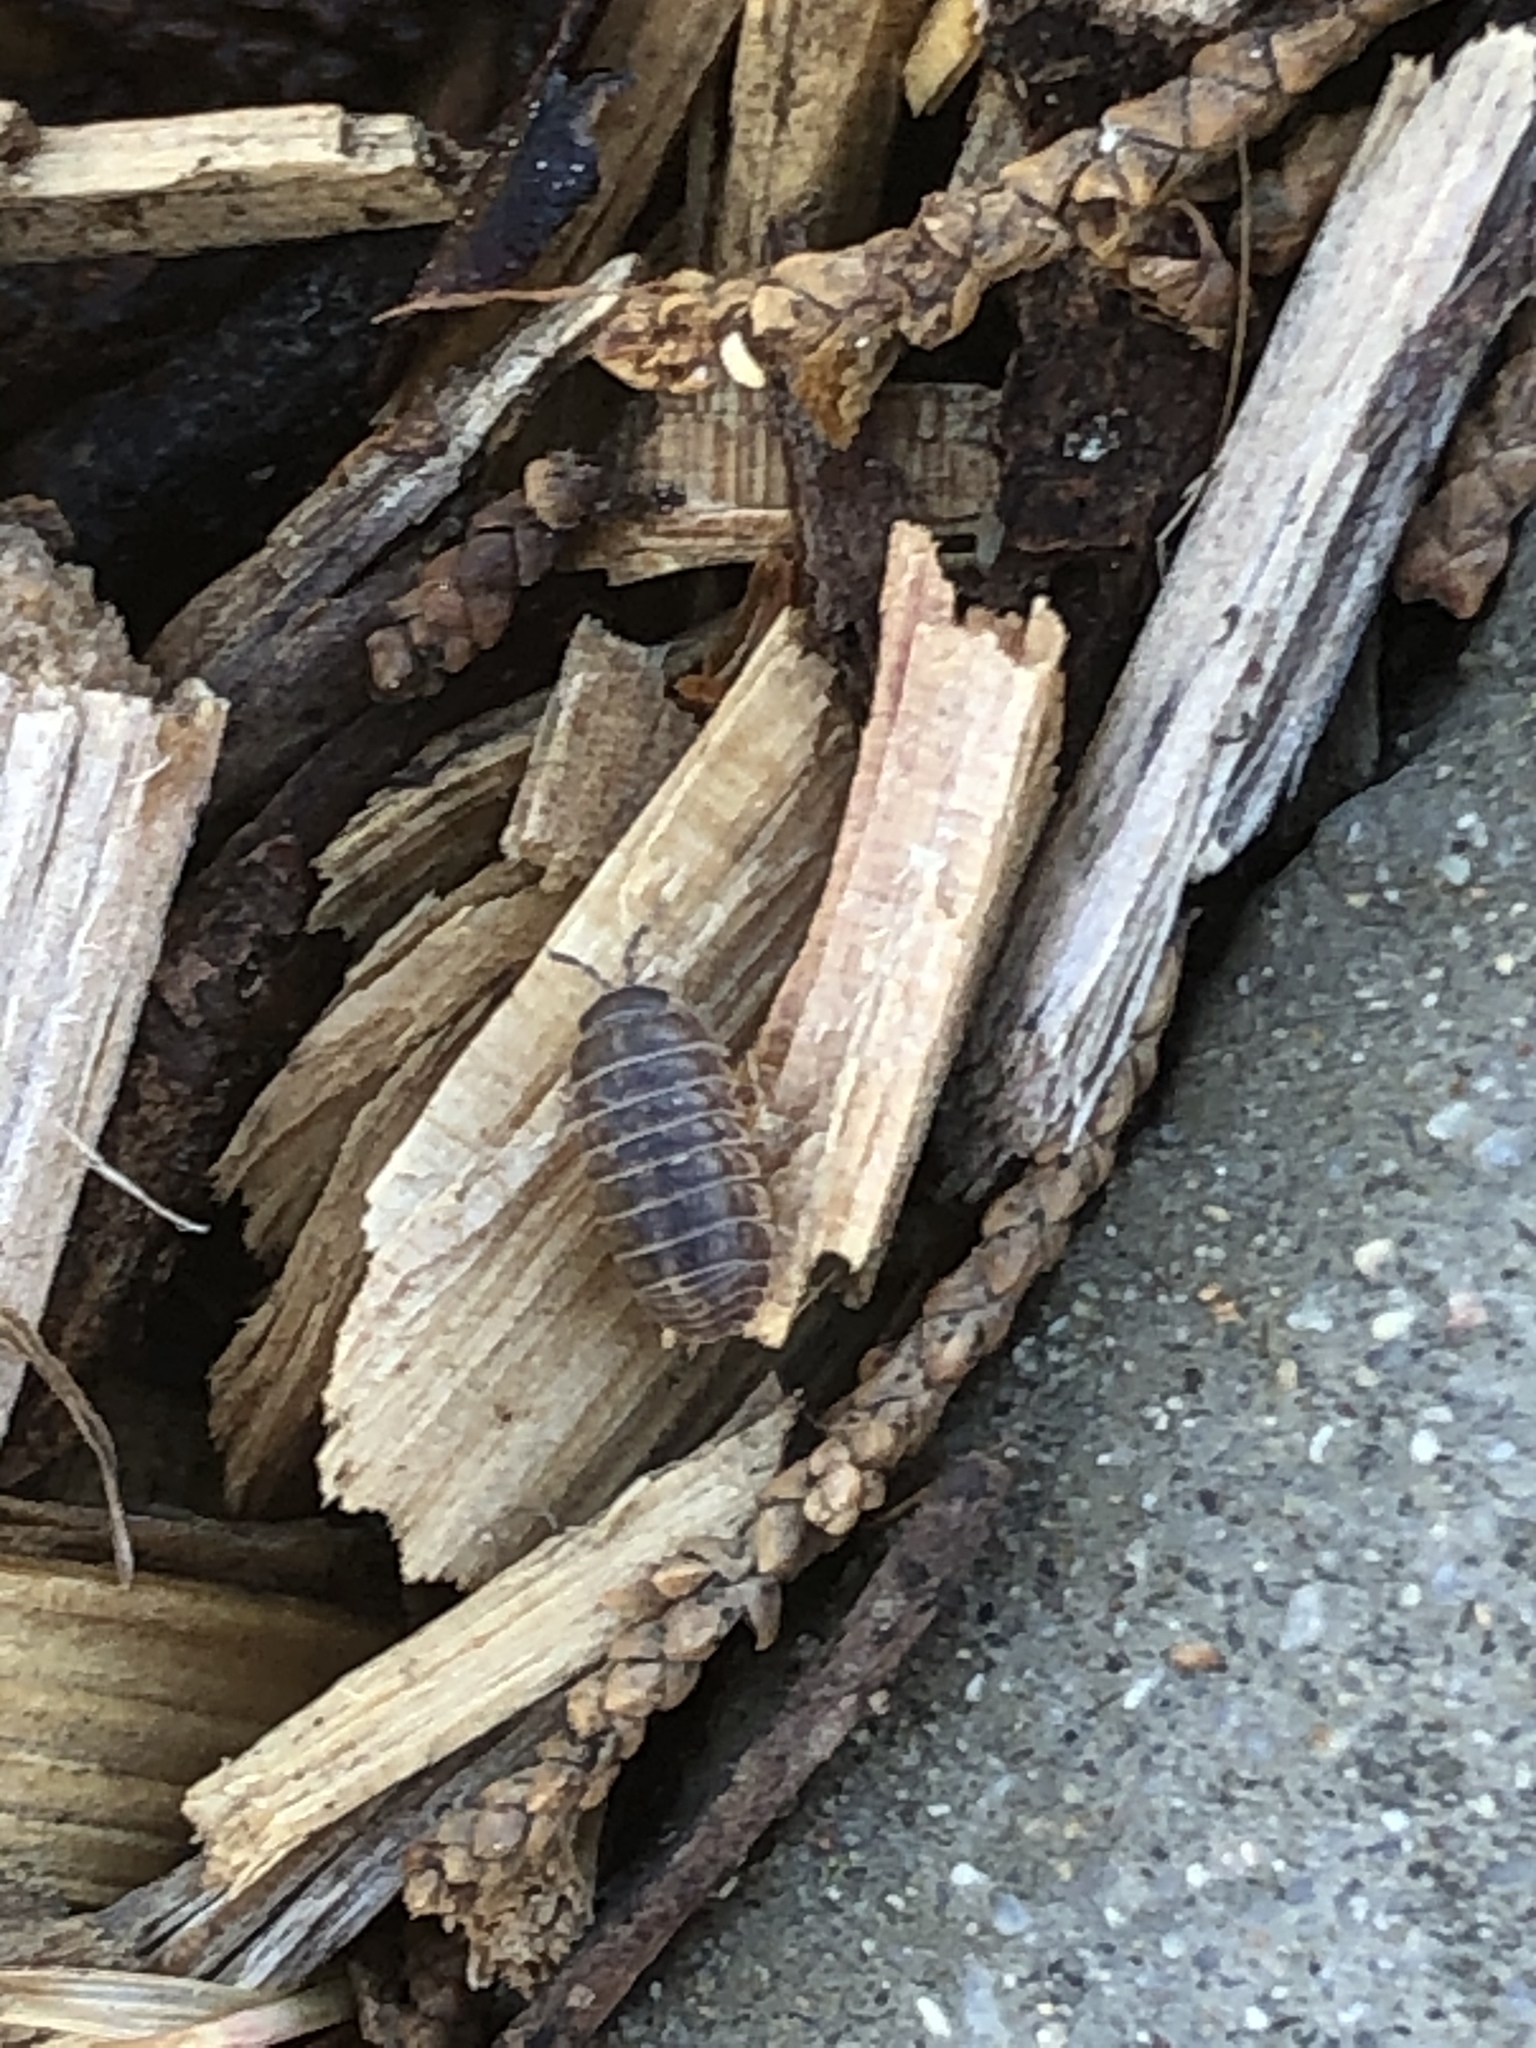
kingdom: Animalia
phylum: Arthropoda
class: Malacostraca
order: Isopoda
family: Armadillidiidae
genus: Armadillidium
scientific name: Armadillidium vulgare
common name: Common pill woodlouse
